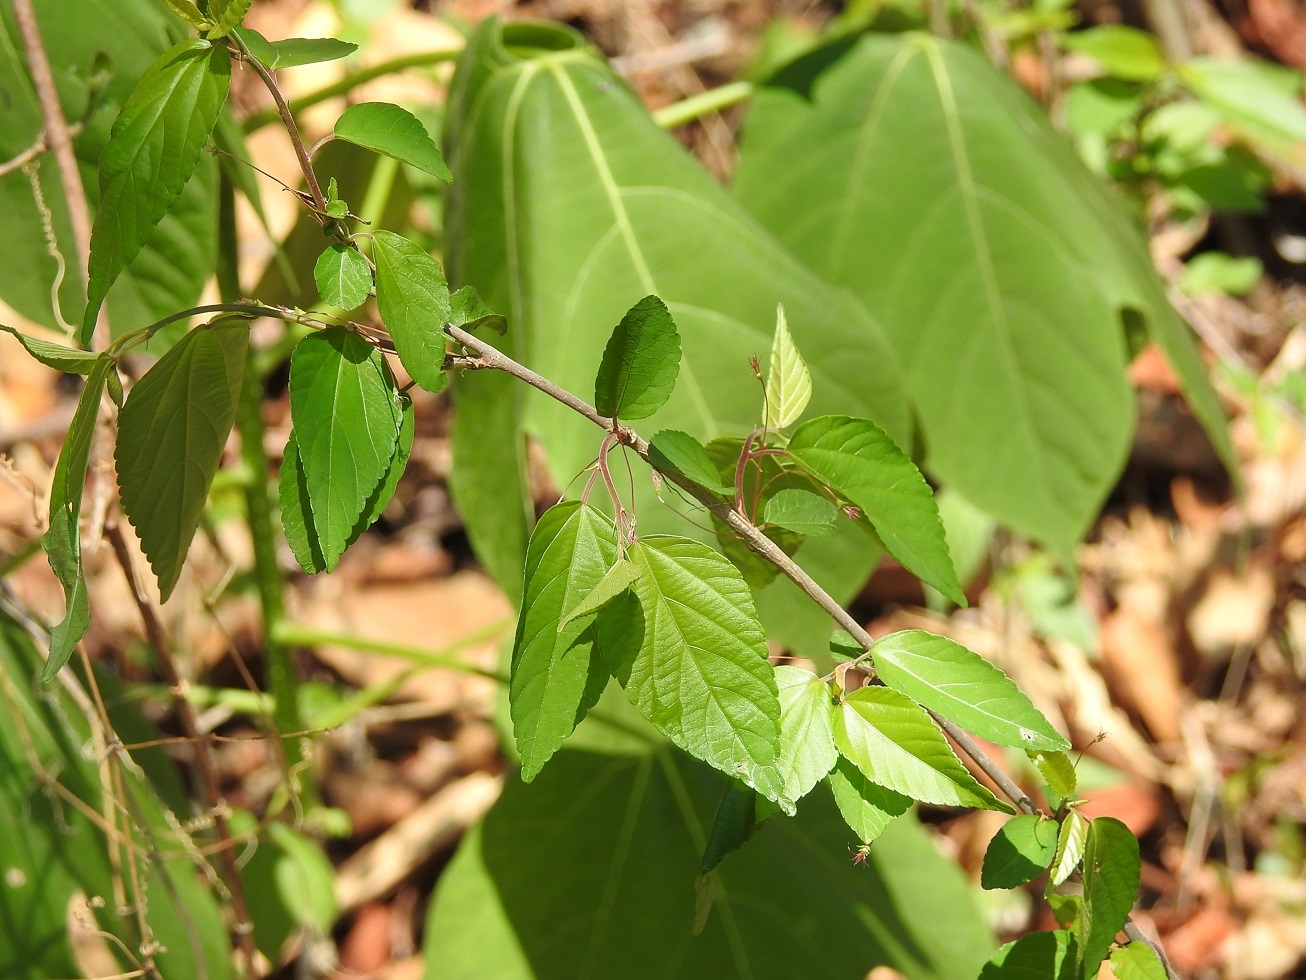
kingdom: Plantae
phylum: Tracheophyta
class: Magnoliopsida
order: Malpighiales
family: Euphorbiaceae
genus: Acalypha
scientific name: Acalypha chiapensis
